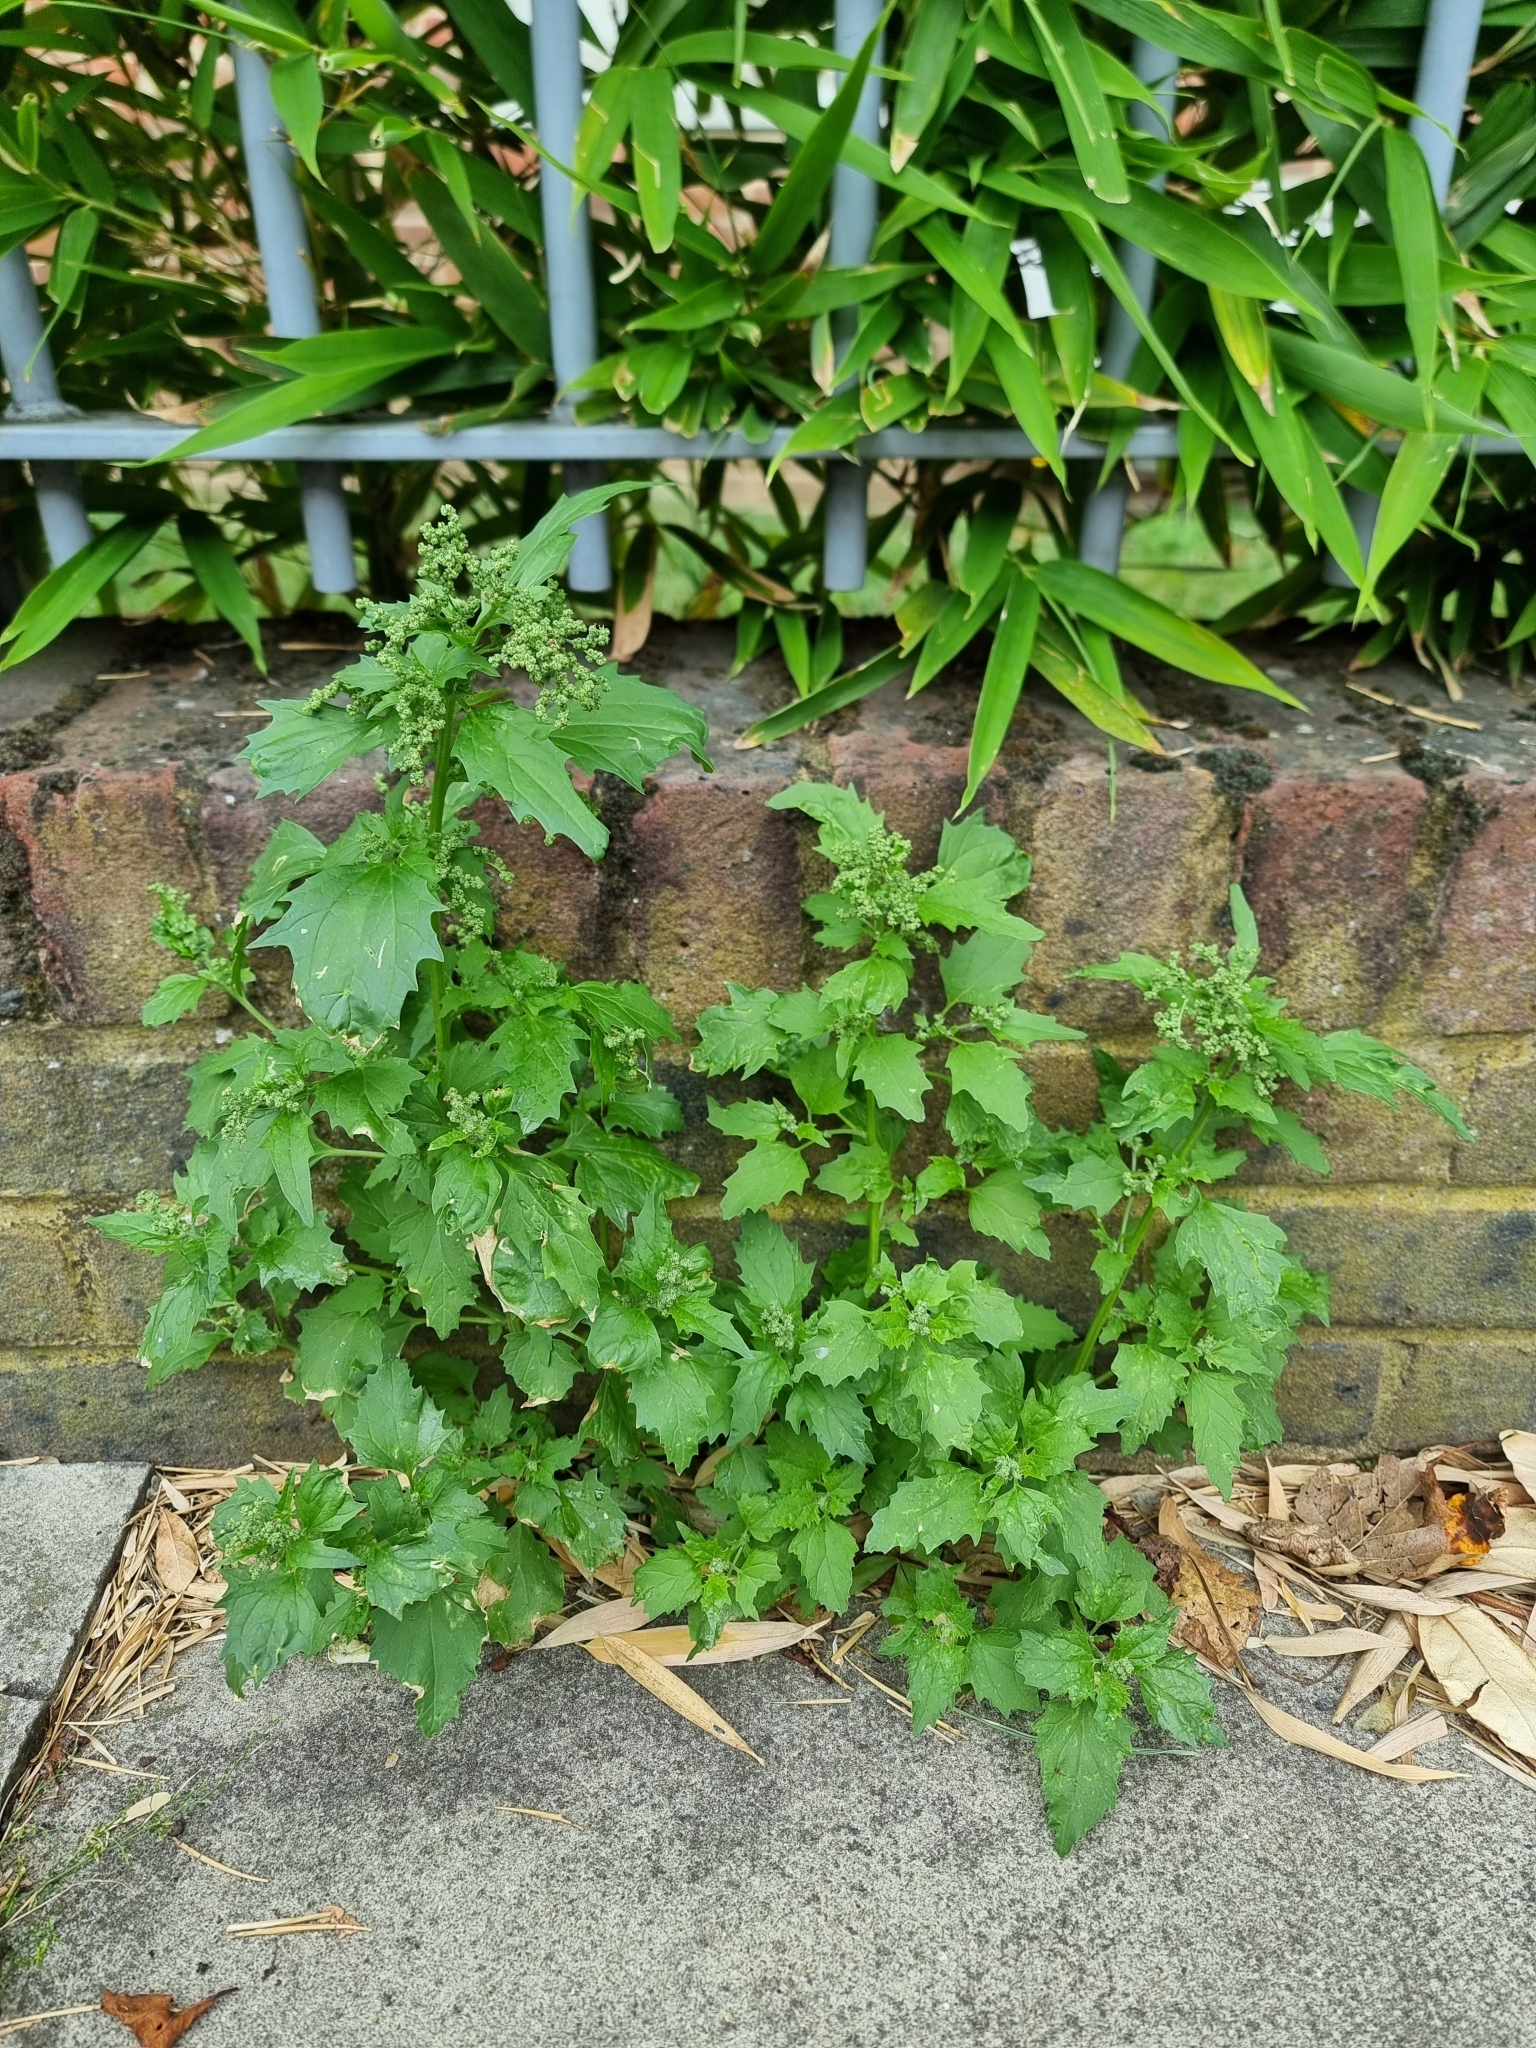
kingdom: Plantae
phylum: Tracheophyta
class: Magnoliopsida
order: Caryophyllales
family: Amaranthaceae
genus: Chenopodiastrum
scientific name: Chenopodiastrum murale
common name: Sowbane
